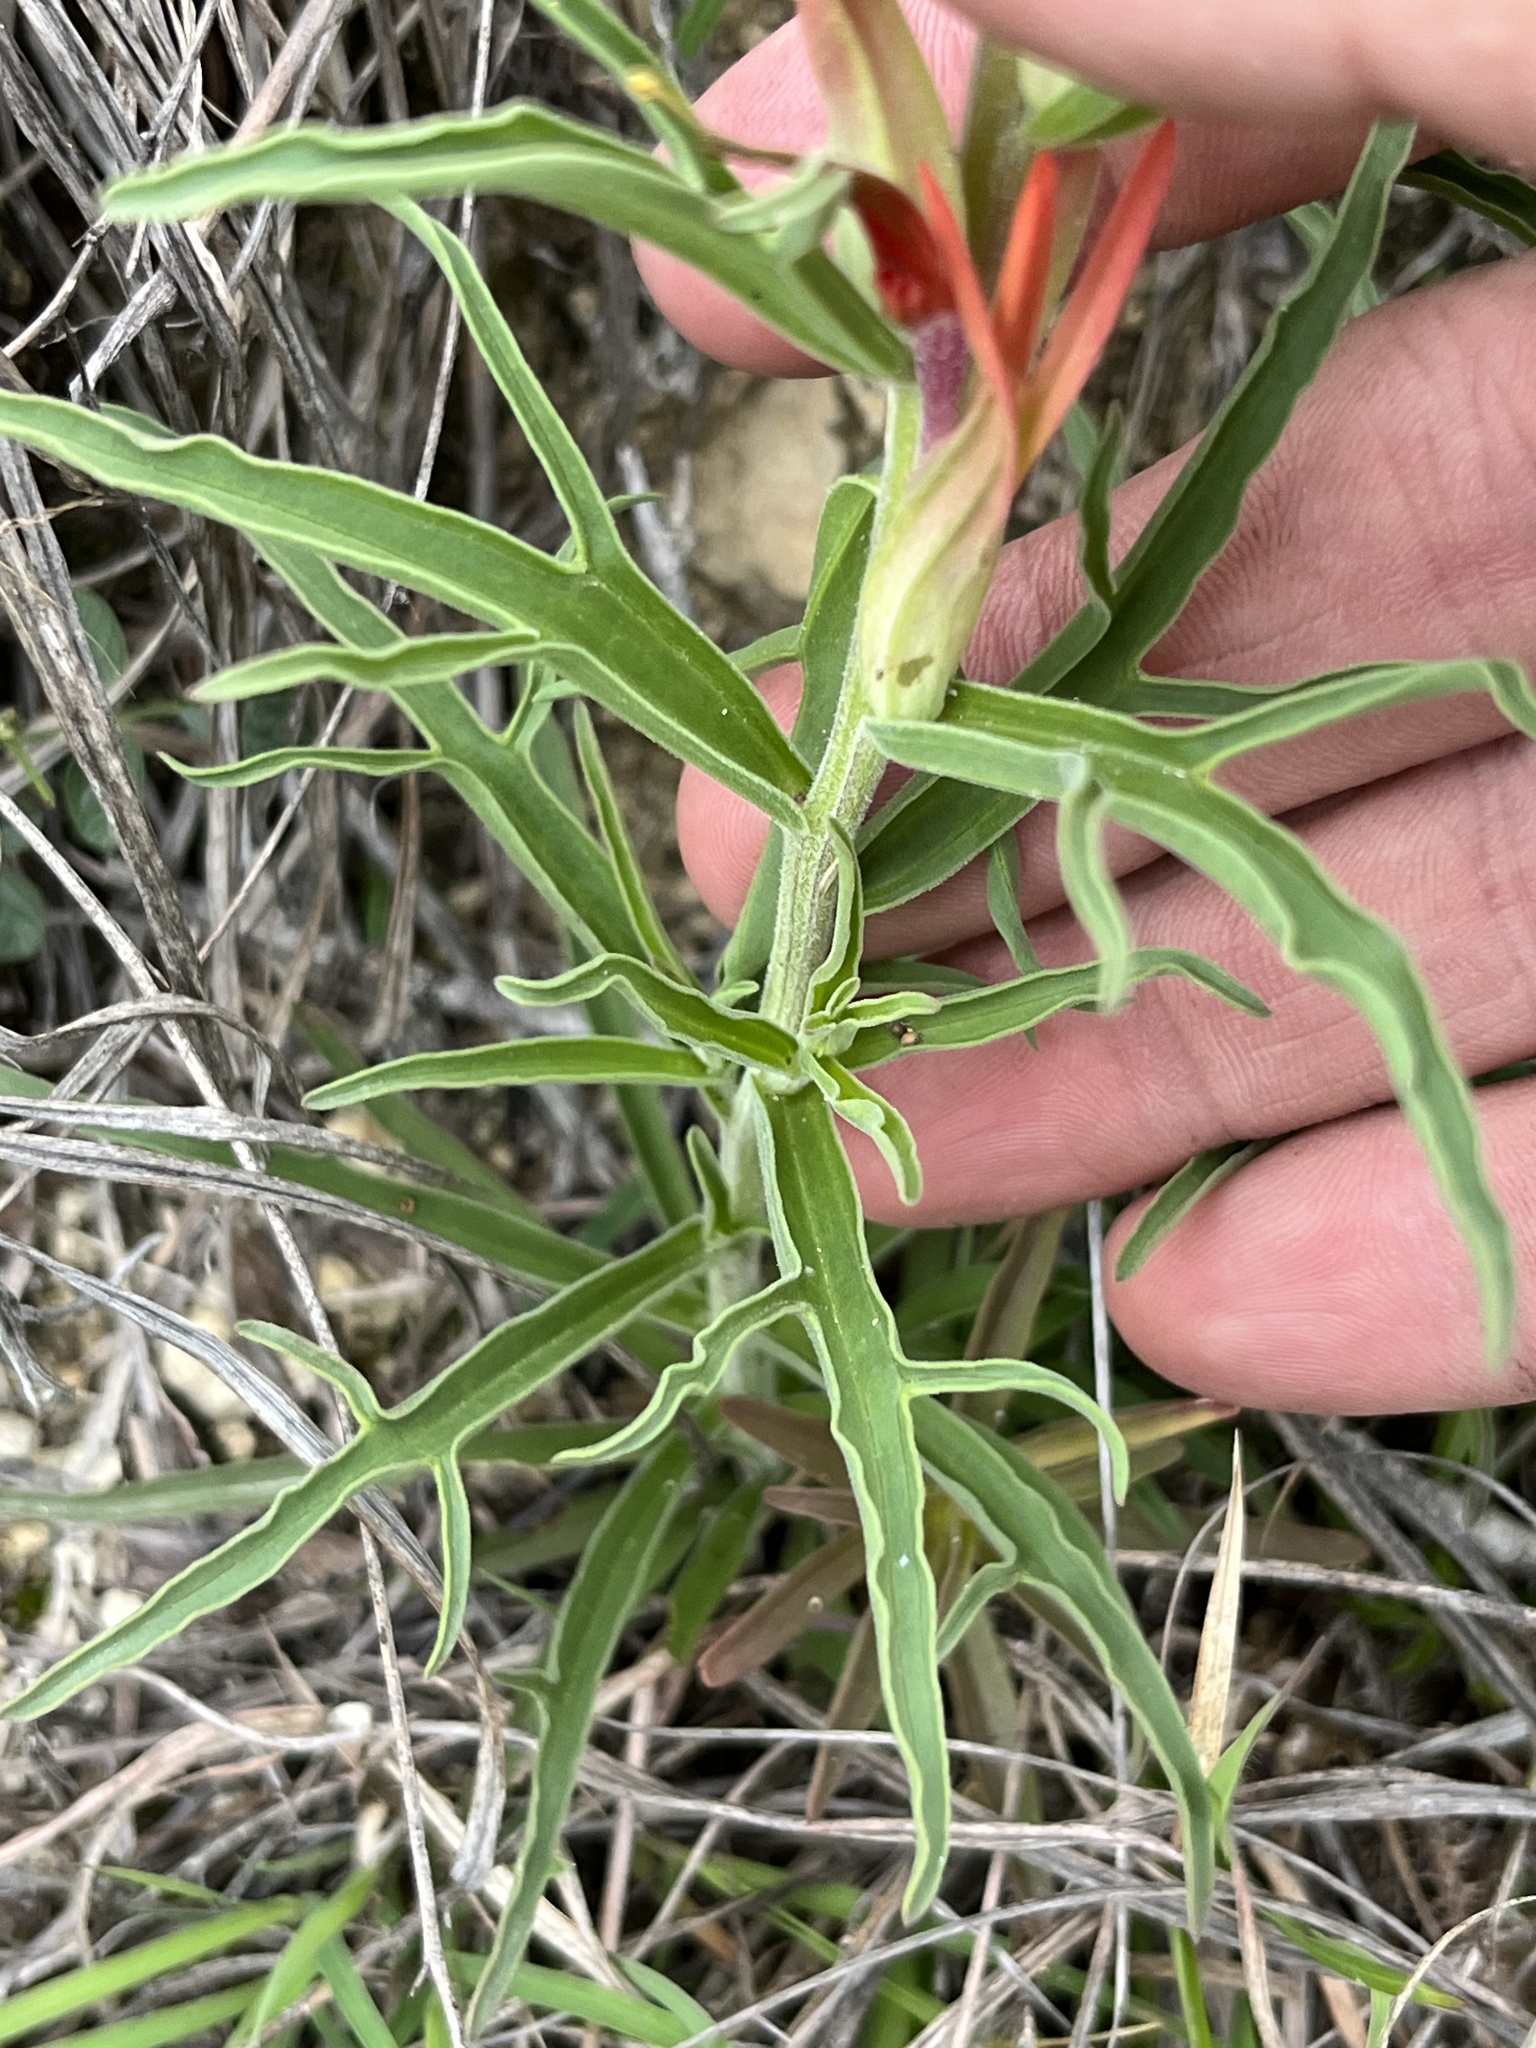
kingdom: Plantae
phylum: Tracheophyta
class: Magnoliopsida
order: Lamiales
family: Orobanchaceae
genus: Castilleja
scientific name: Castilleja lindheimeri
